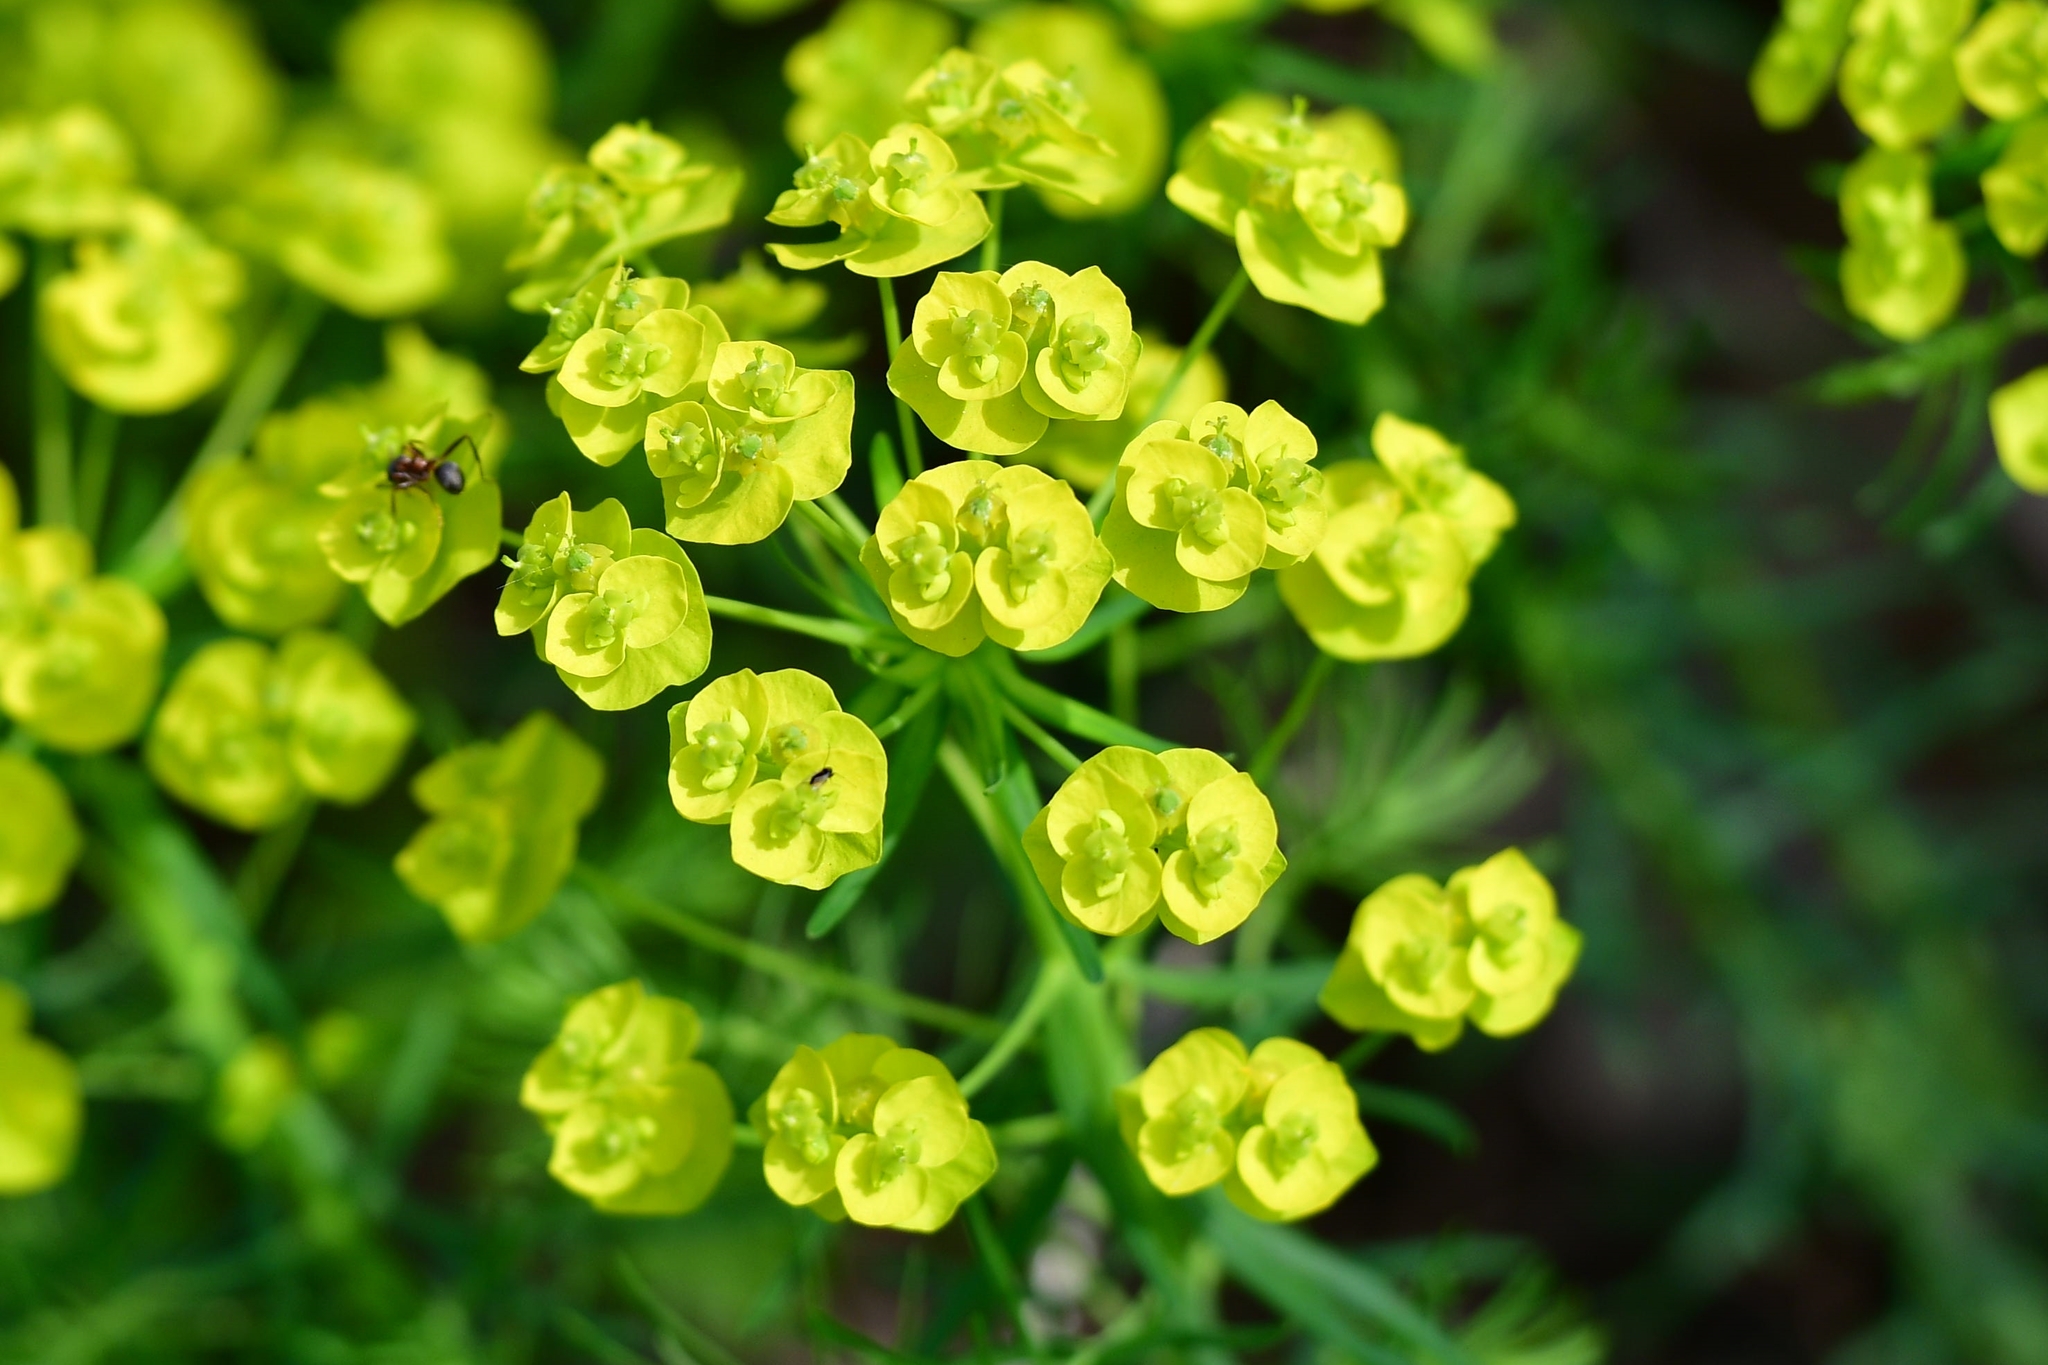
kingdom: Plantae
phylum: Tracheophyta
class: Magnoliopsida
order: Malpighiales
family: Euphorbiaceae
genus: Euphorbia
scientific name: Euphorbia cyparissias
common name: Cypress spurge
